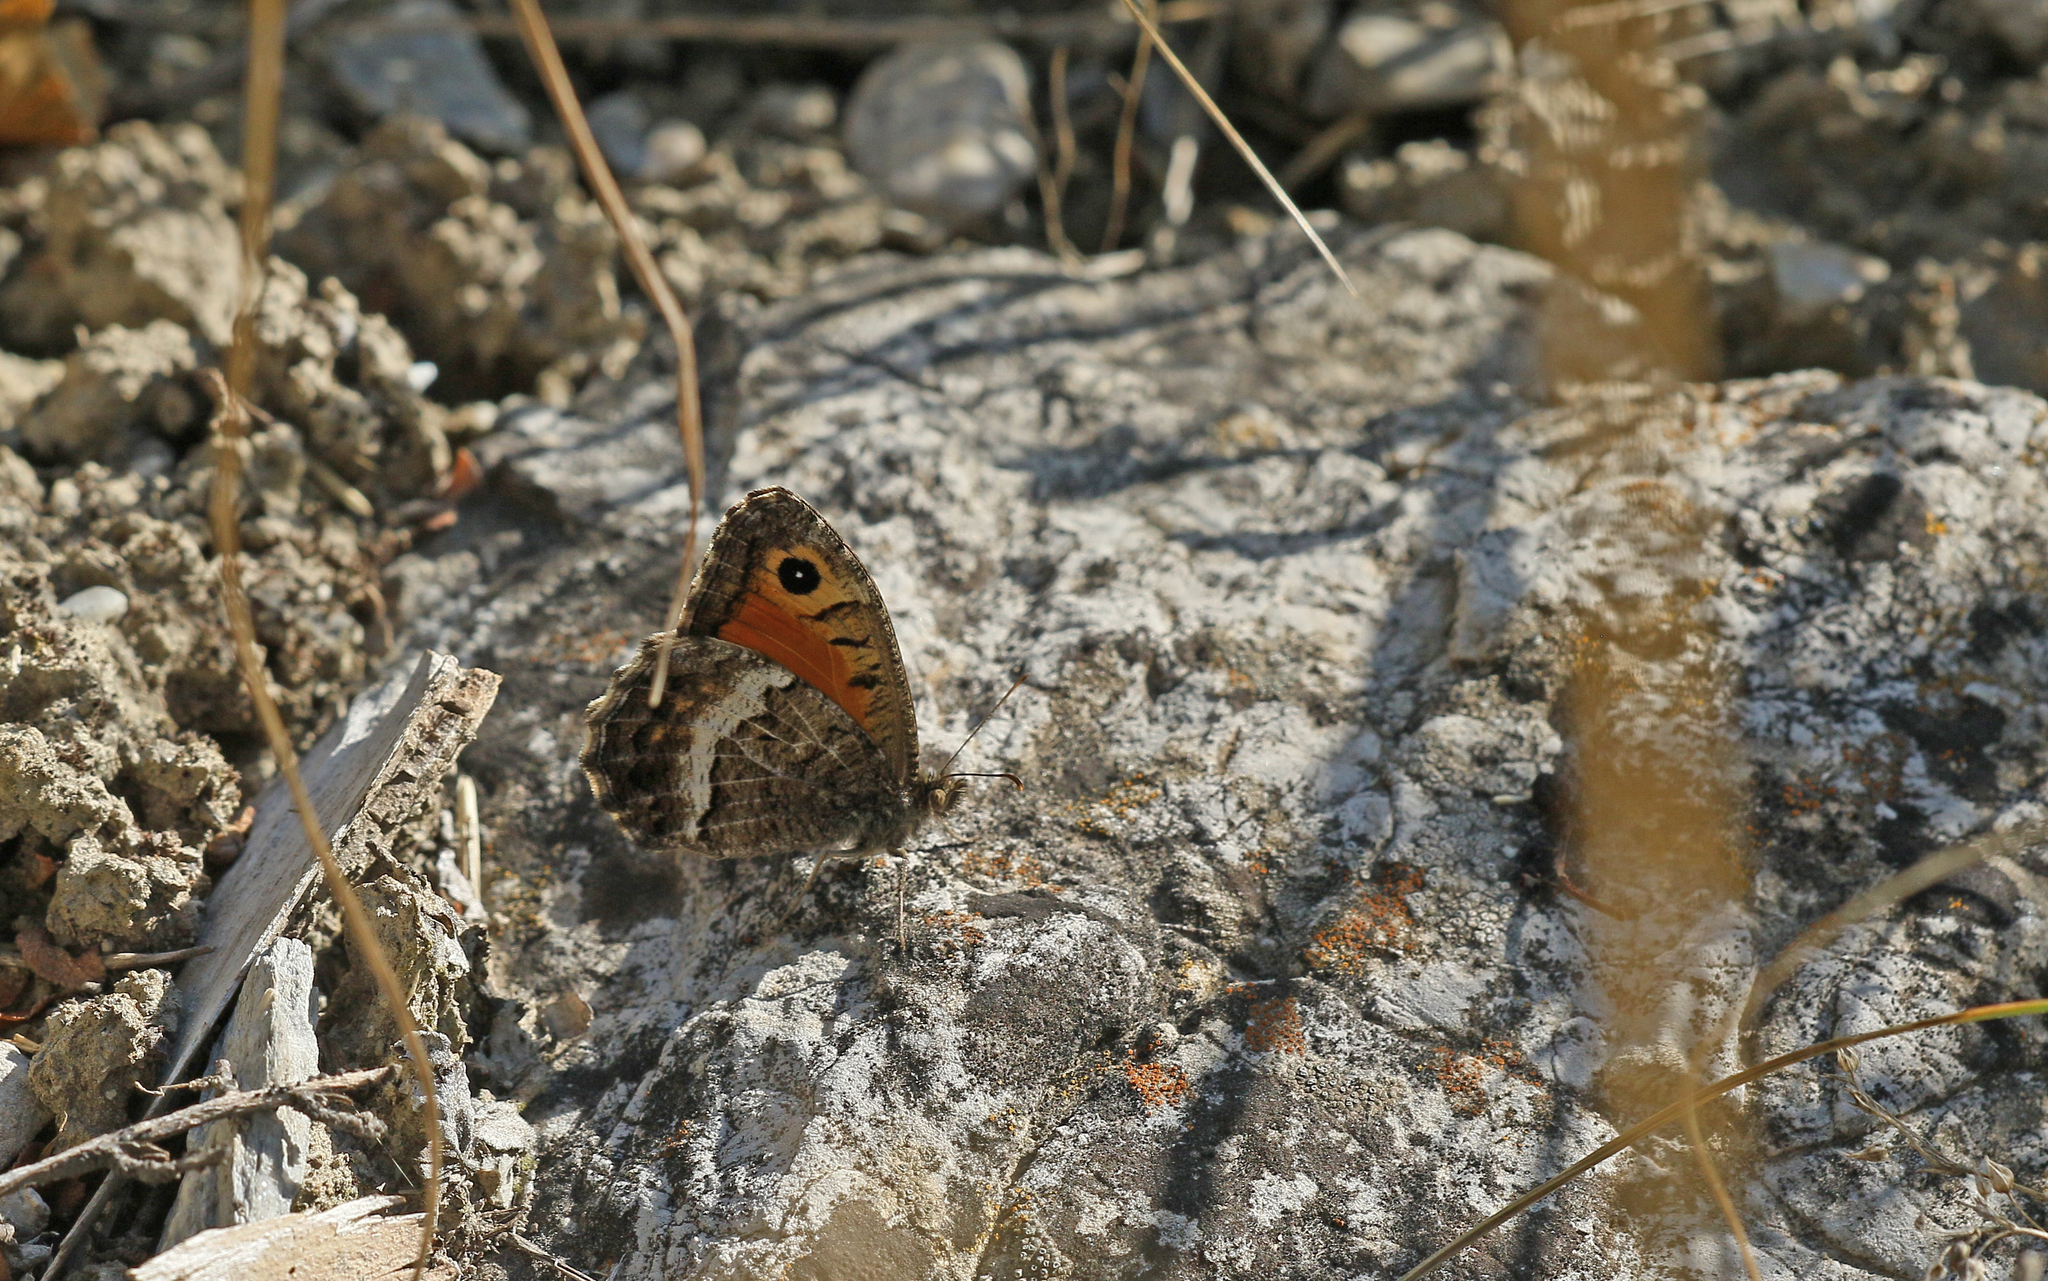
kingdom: Animalia
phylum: Arthropoda
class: Insecta
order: Lepidoptera
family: Nymphalidae
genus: Arethusana
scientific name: Arethusana arethusa
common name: False grayling
